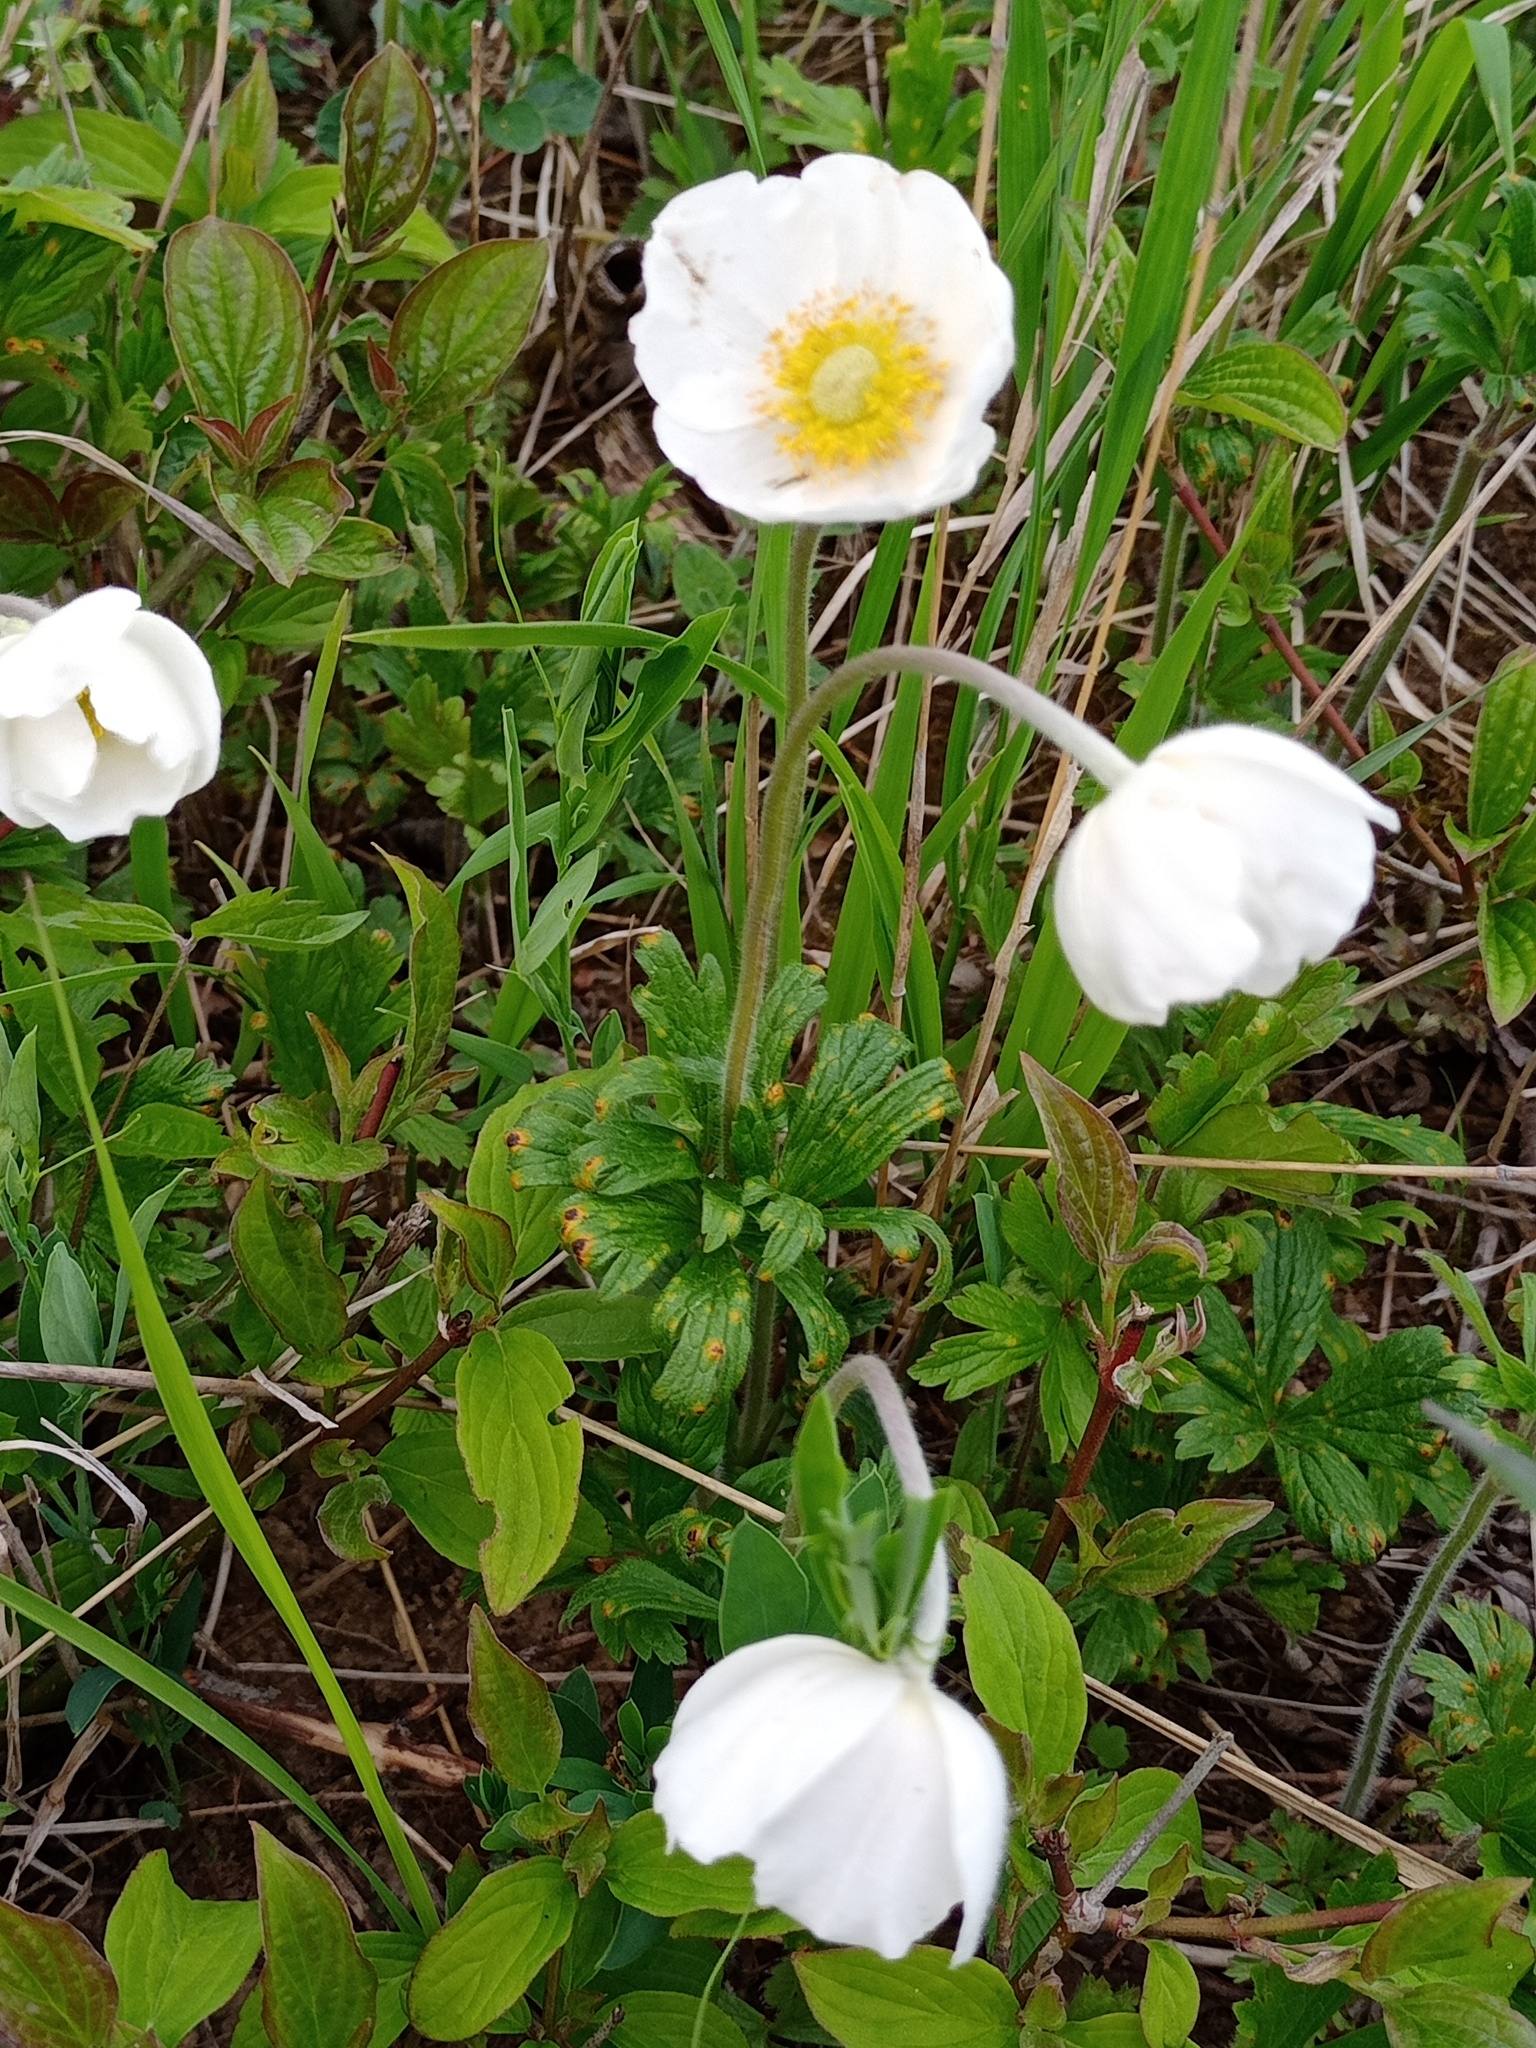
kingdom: Plantae
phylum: Tracheophyta
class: Magnoliopsida
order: Ranunculales
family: Ranunculaceae
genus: Anemone
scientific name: Anemone sylvestris
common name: Snowdrop anemone
